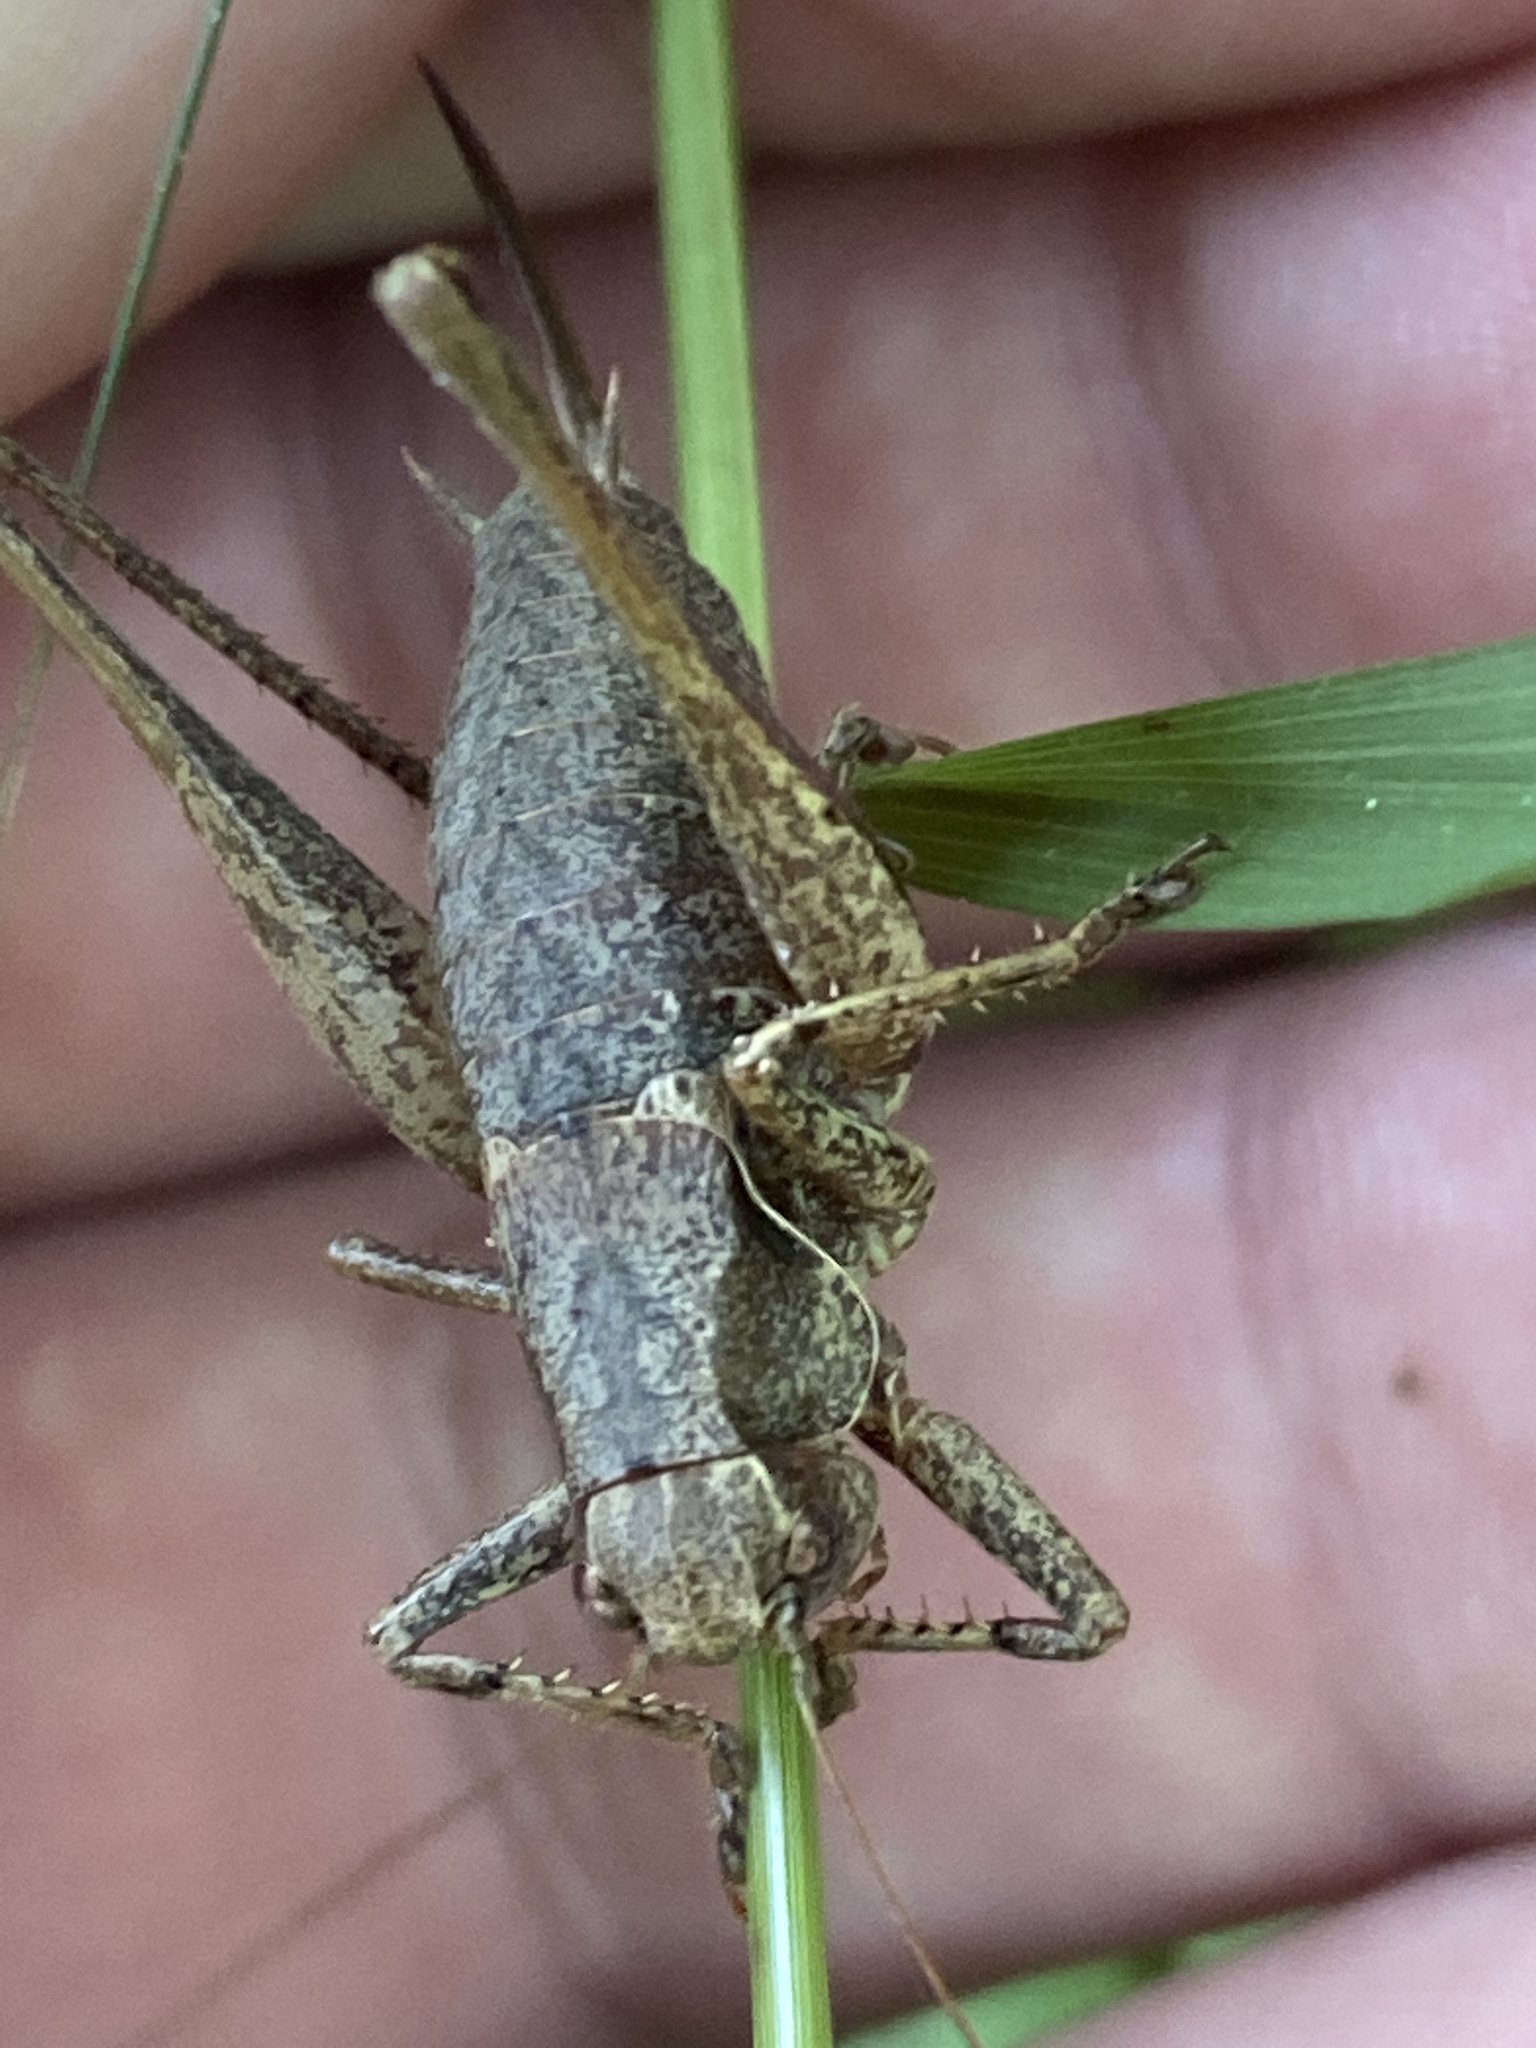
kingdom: Animalia
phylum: Arthropoda
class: Insecta
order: Orthoptera
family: Tettigoniidae
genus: Pholidoptera
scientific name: Pholidoptera griseoaptera
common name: Dark bush-cricket
